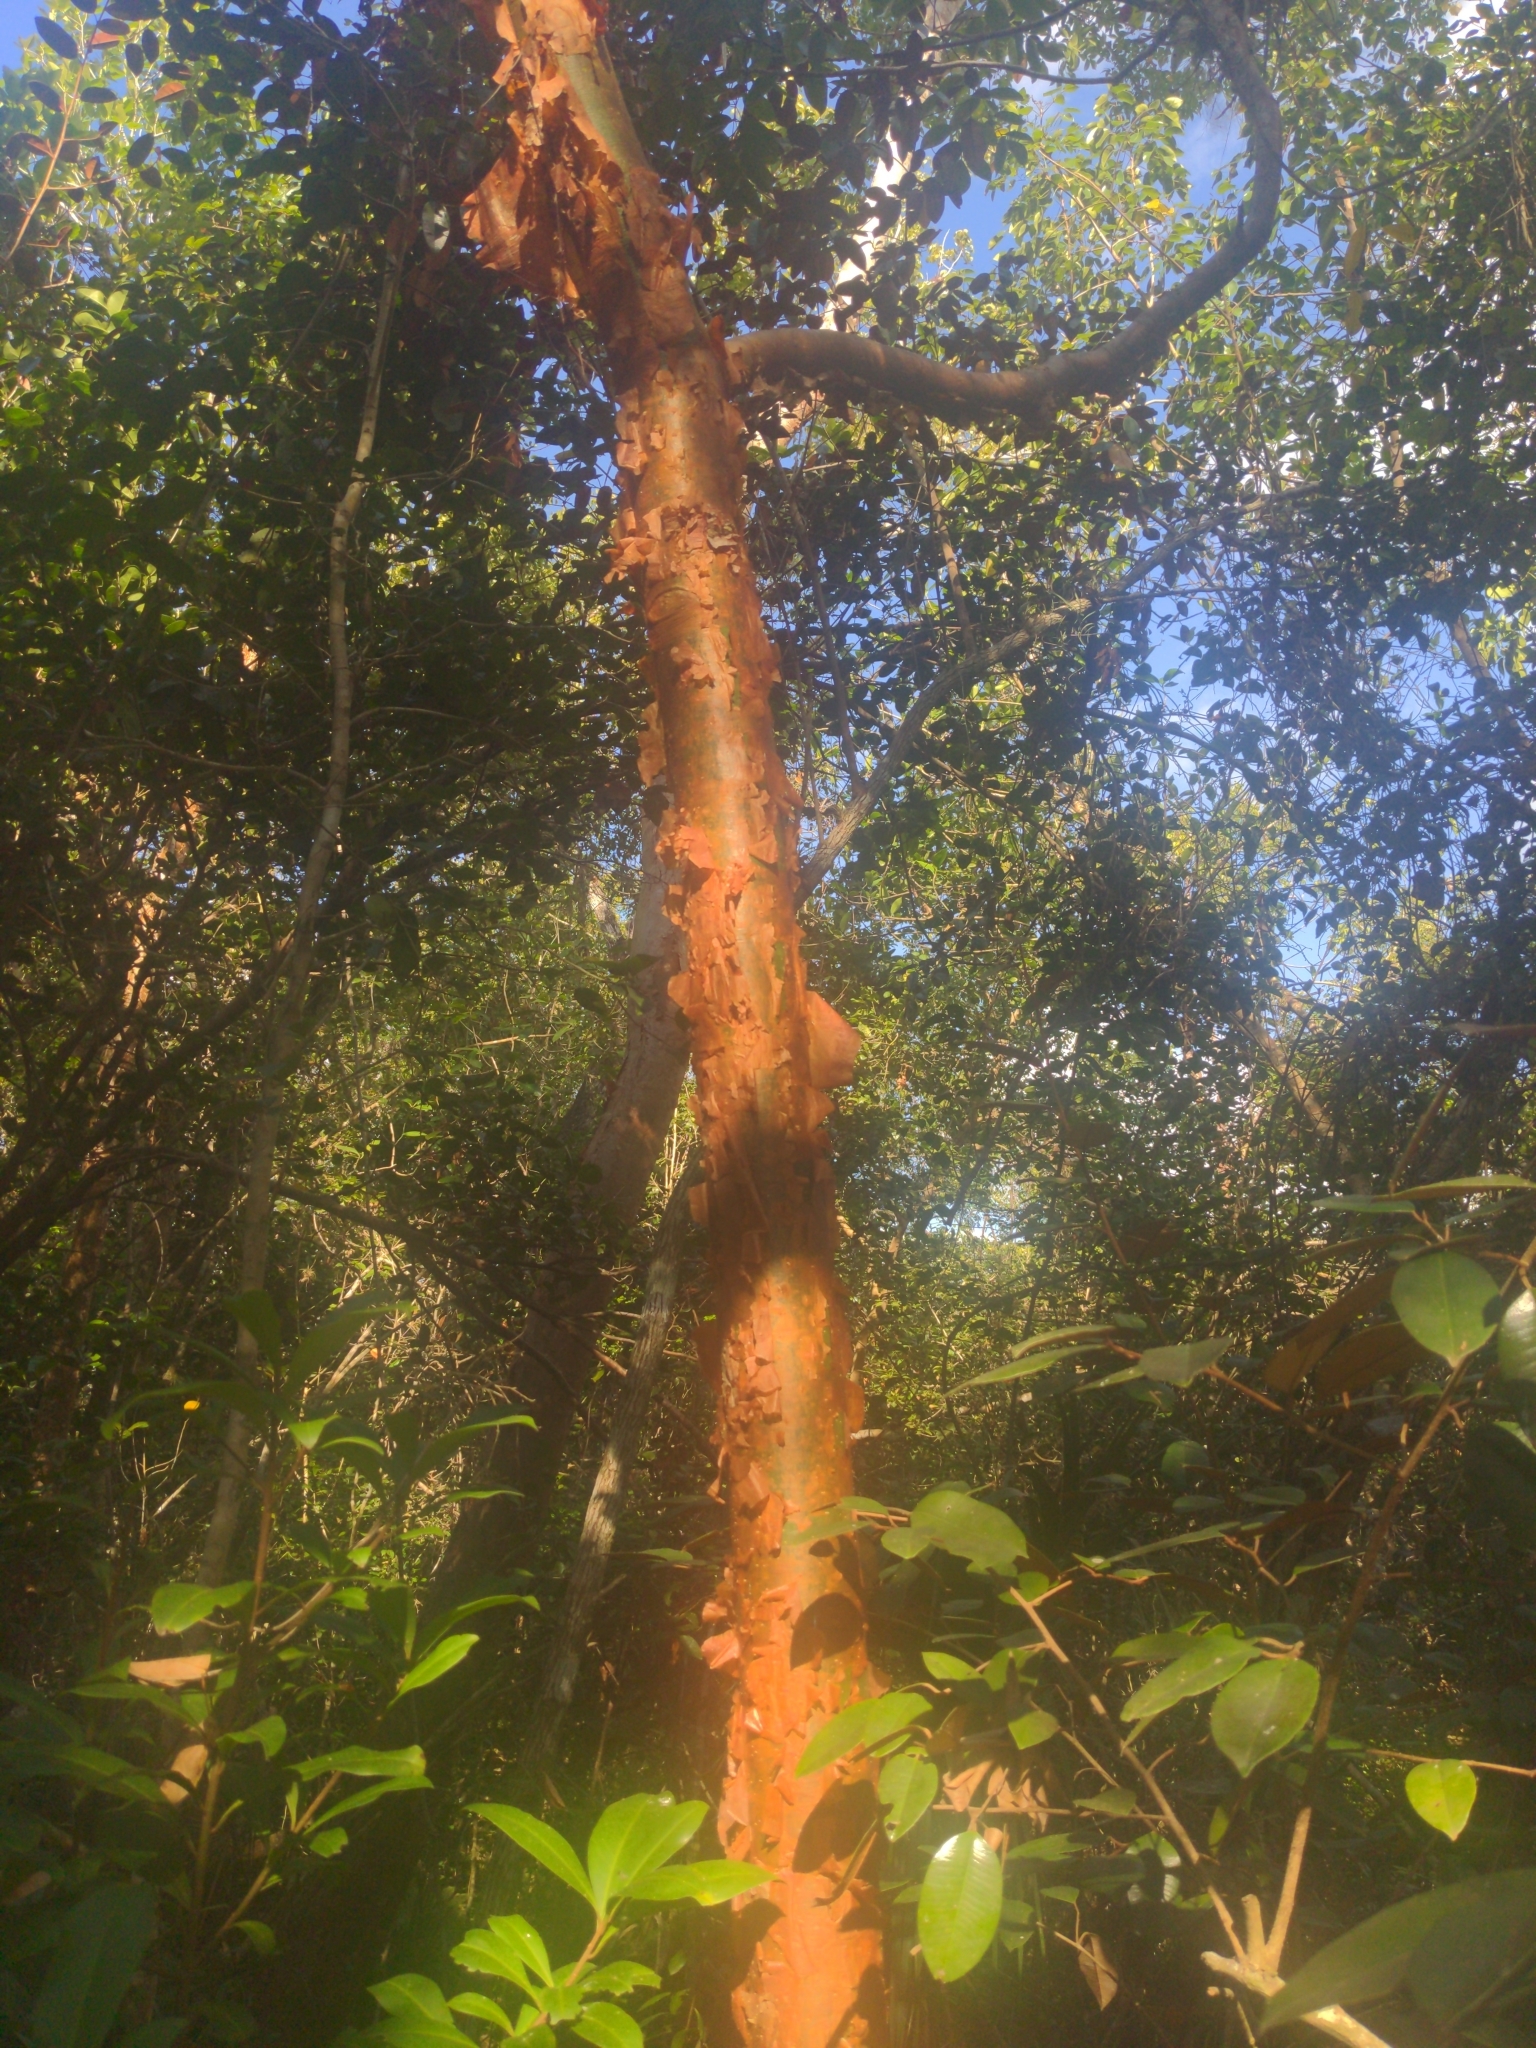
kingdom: Plantae
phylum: Tracheophyta
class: Magnoliopsida
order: Sapindales
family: Burseraceae
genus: Bursera
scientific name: Bursera simaruba
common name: Turpentine tree
